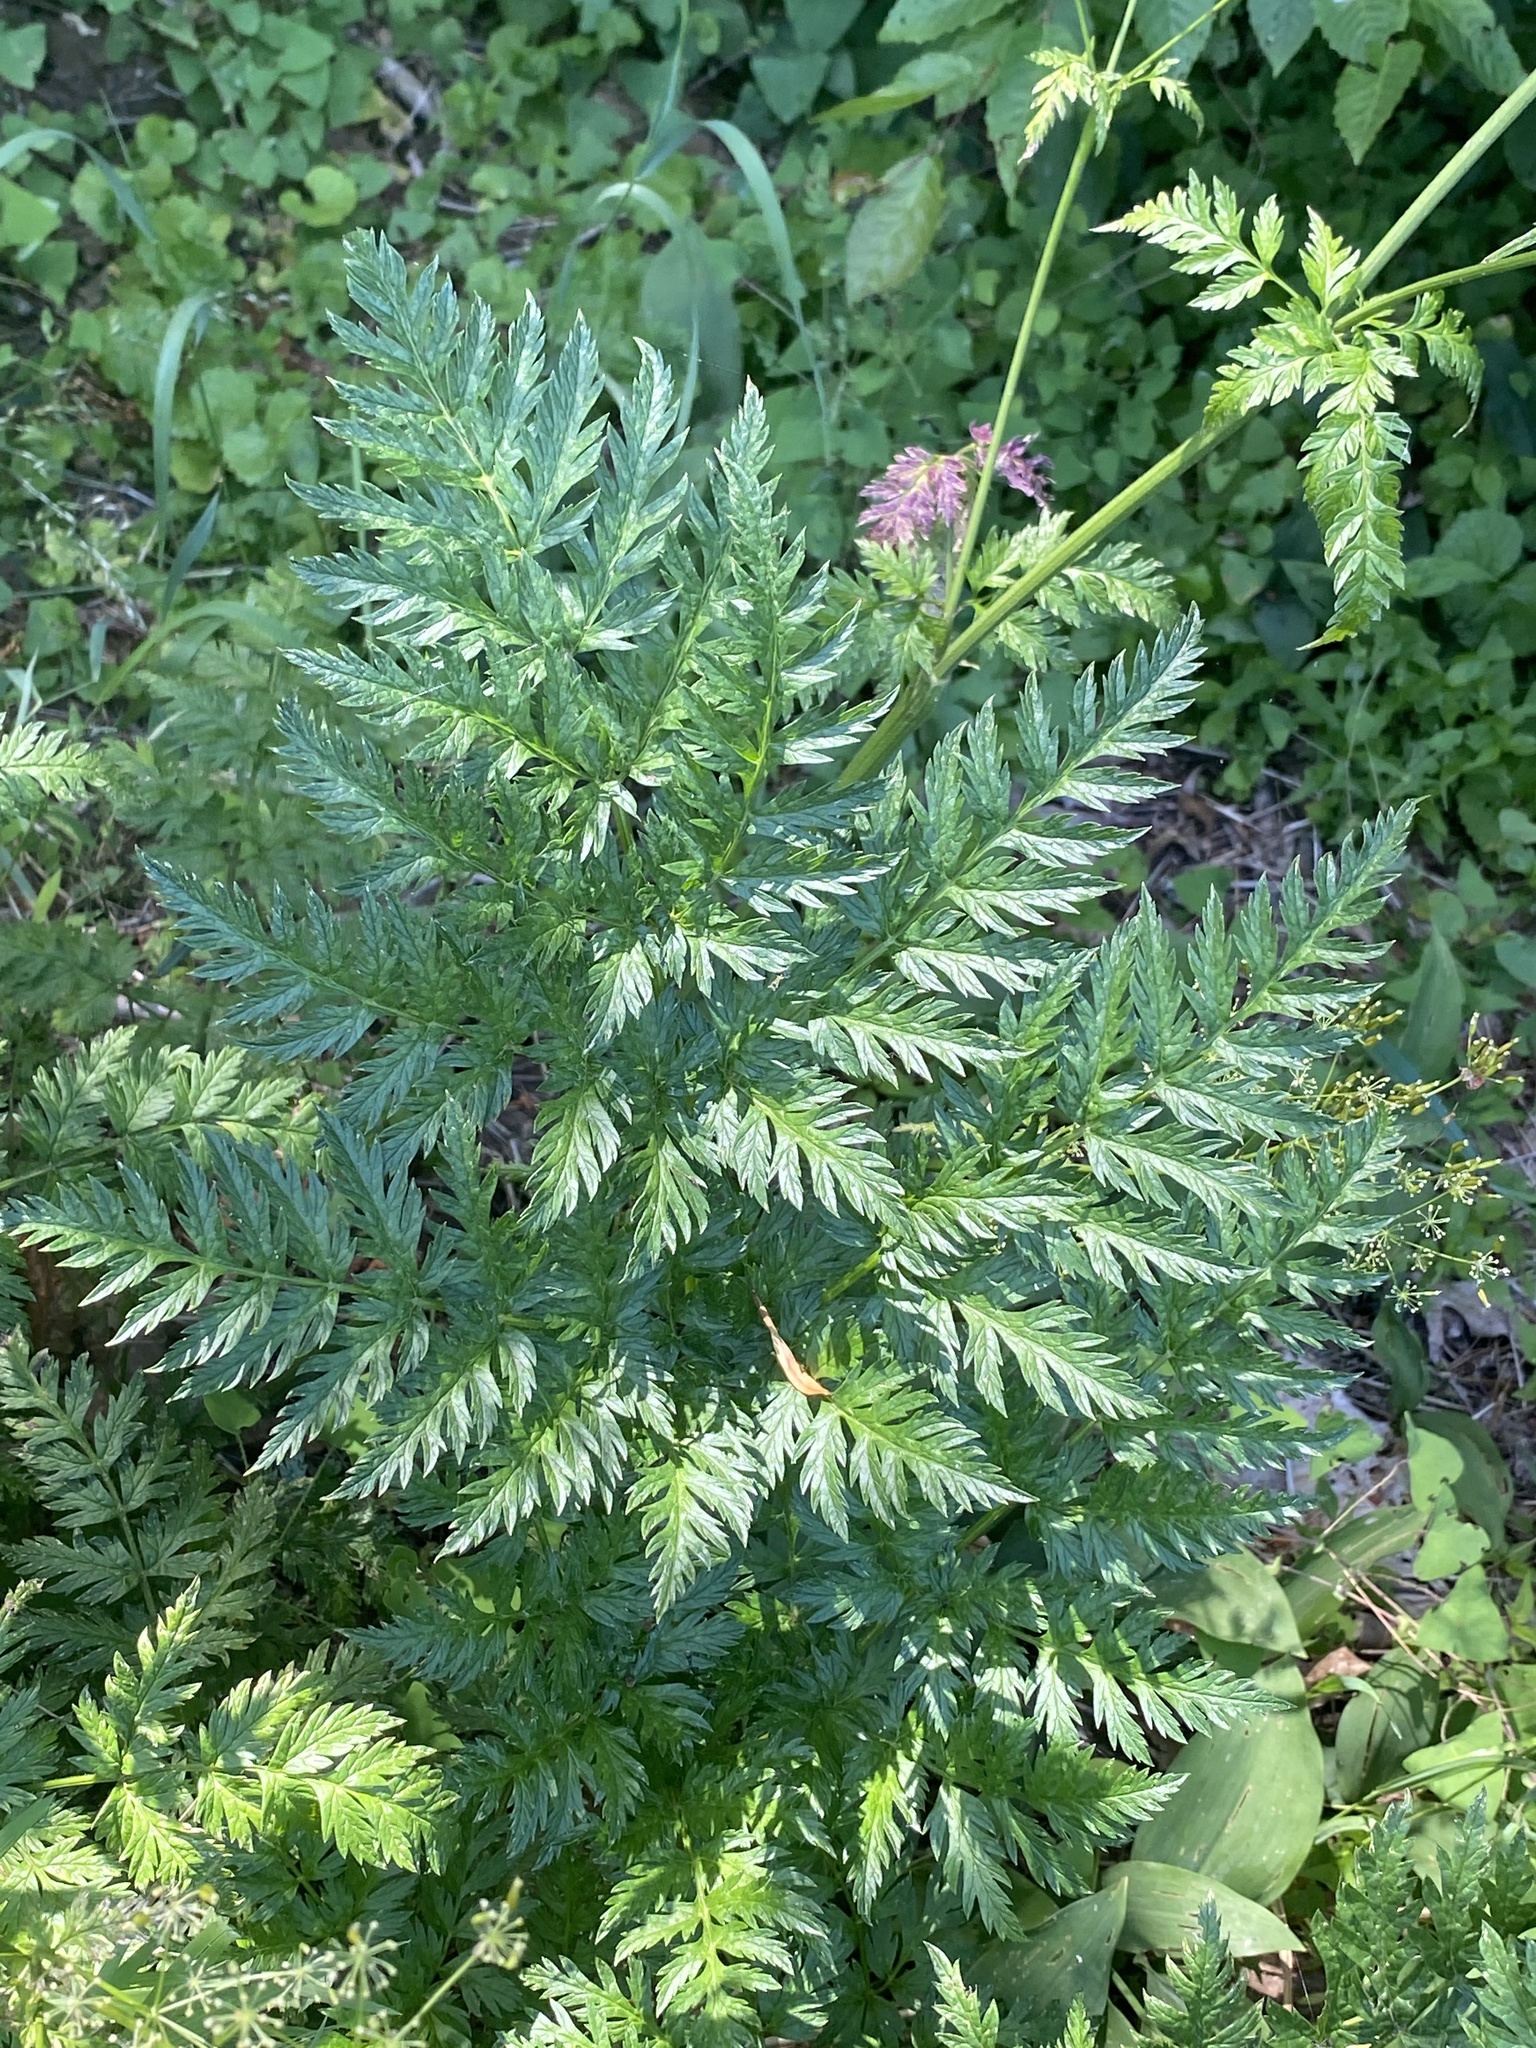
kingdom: Plantae
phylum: Tracheophyta
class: Magnoliopsida
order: Apiales
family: Apiaceae
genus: Anthriscus
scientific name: Anthriscus sylvestris
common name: Cow parsley
